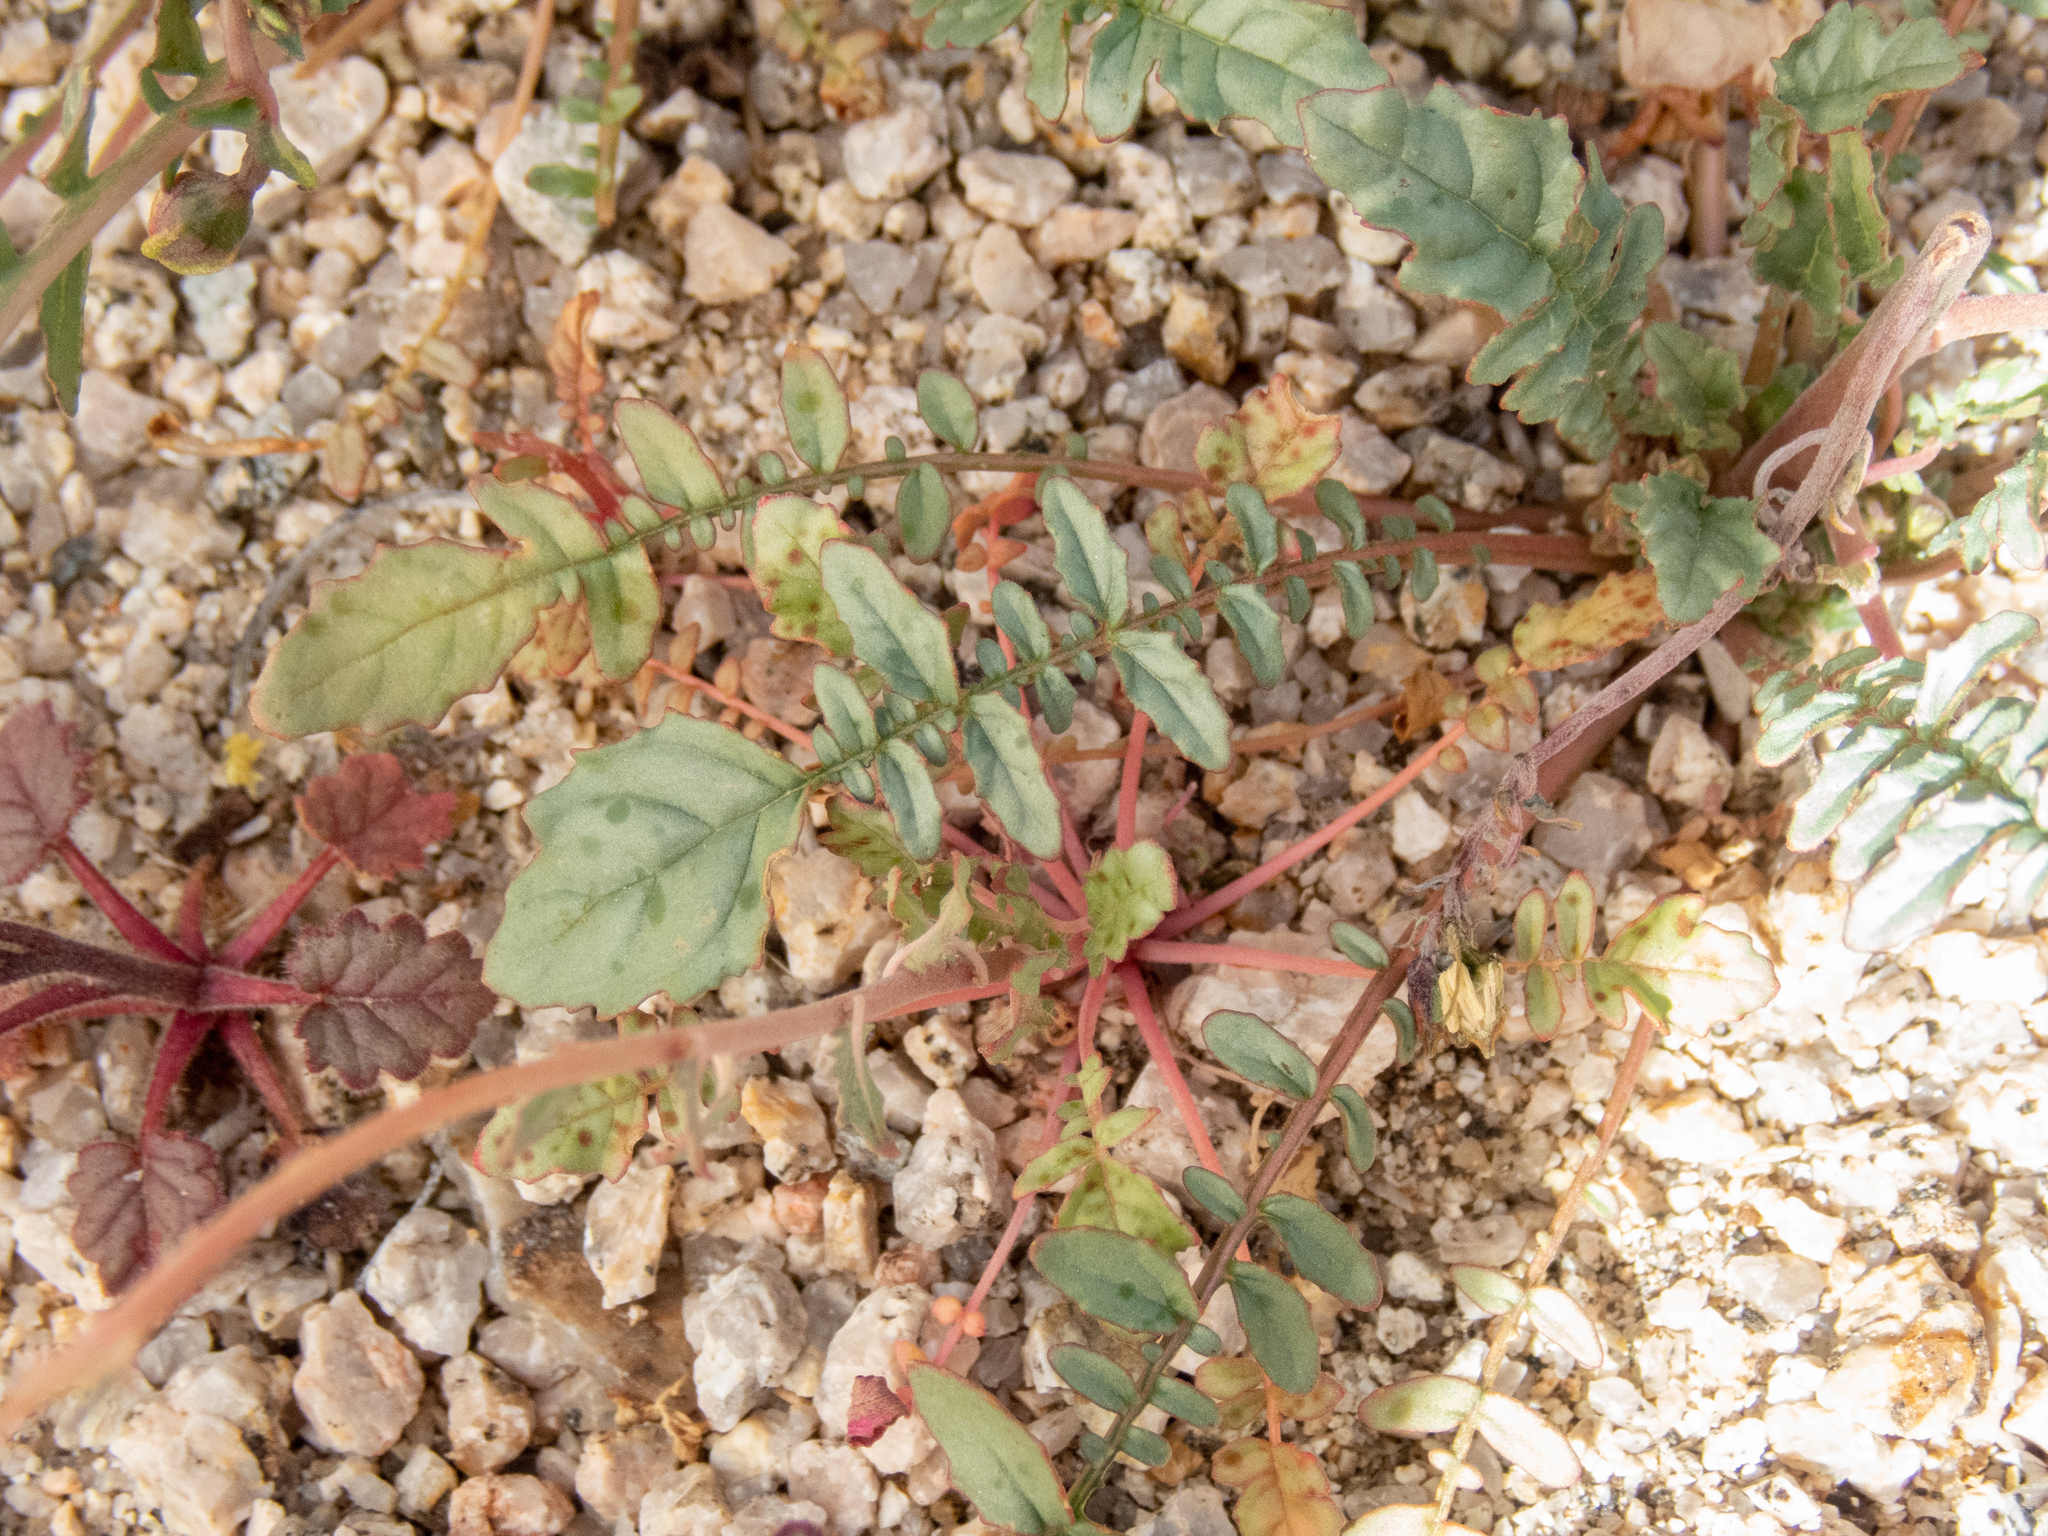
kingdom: Plantae
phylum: Tracheophyta
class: Magnoliopsida
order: Myrtales
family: Onagraceae
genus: Chylismia
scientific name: Chylismia claviformis
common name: Browneyes
